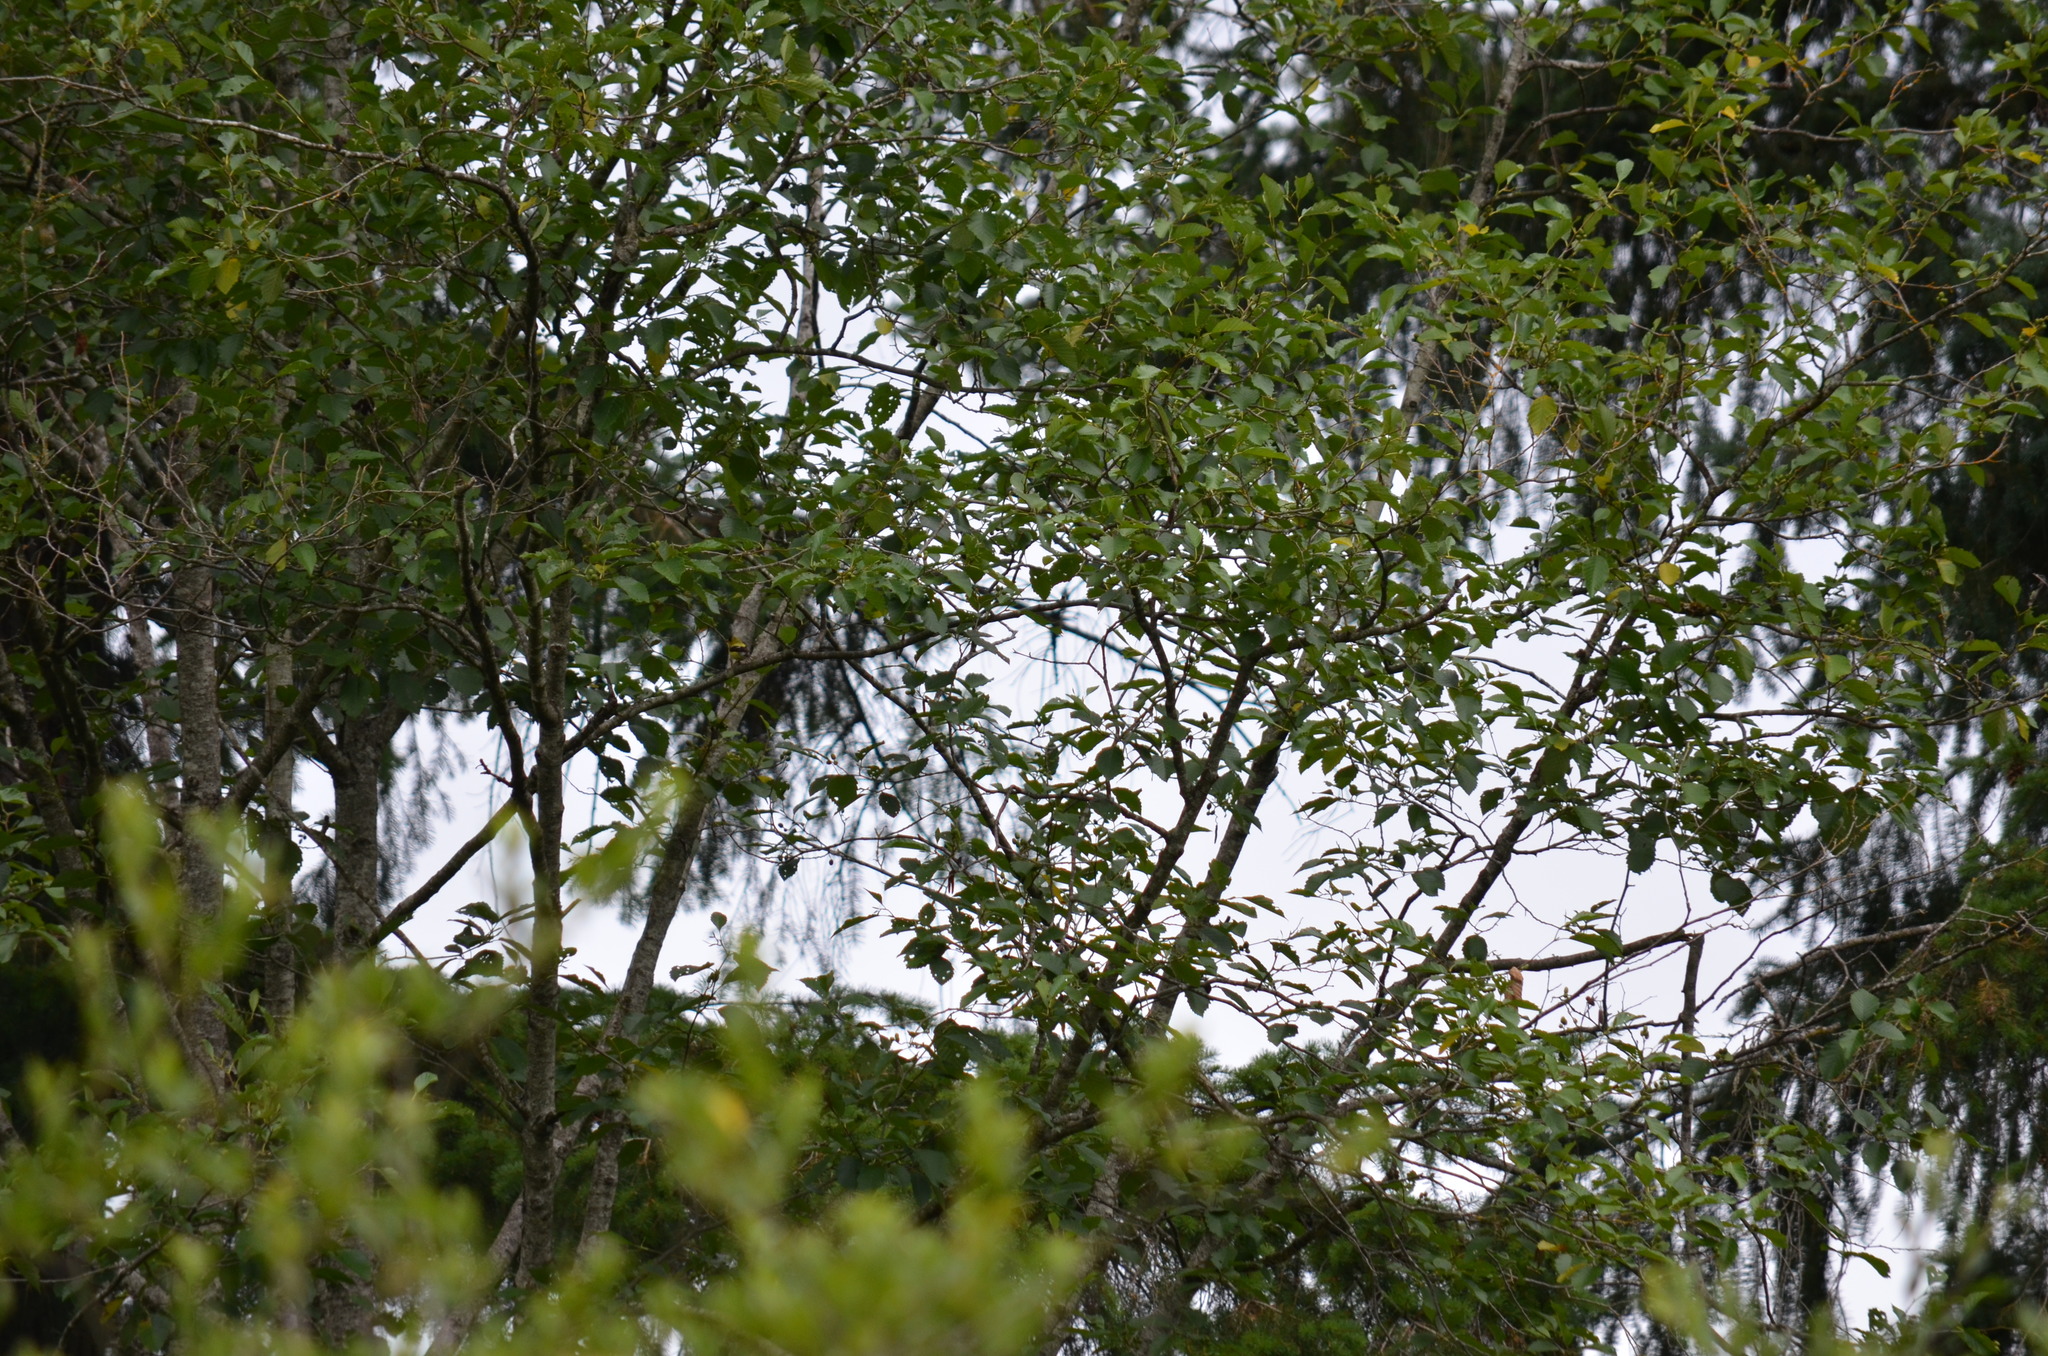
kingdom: Animalia
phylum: Chordata
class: Aves
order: Passeriformes
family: Fringillidae
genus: Spinus
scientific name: Spinus tristis
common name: American goldfinch
